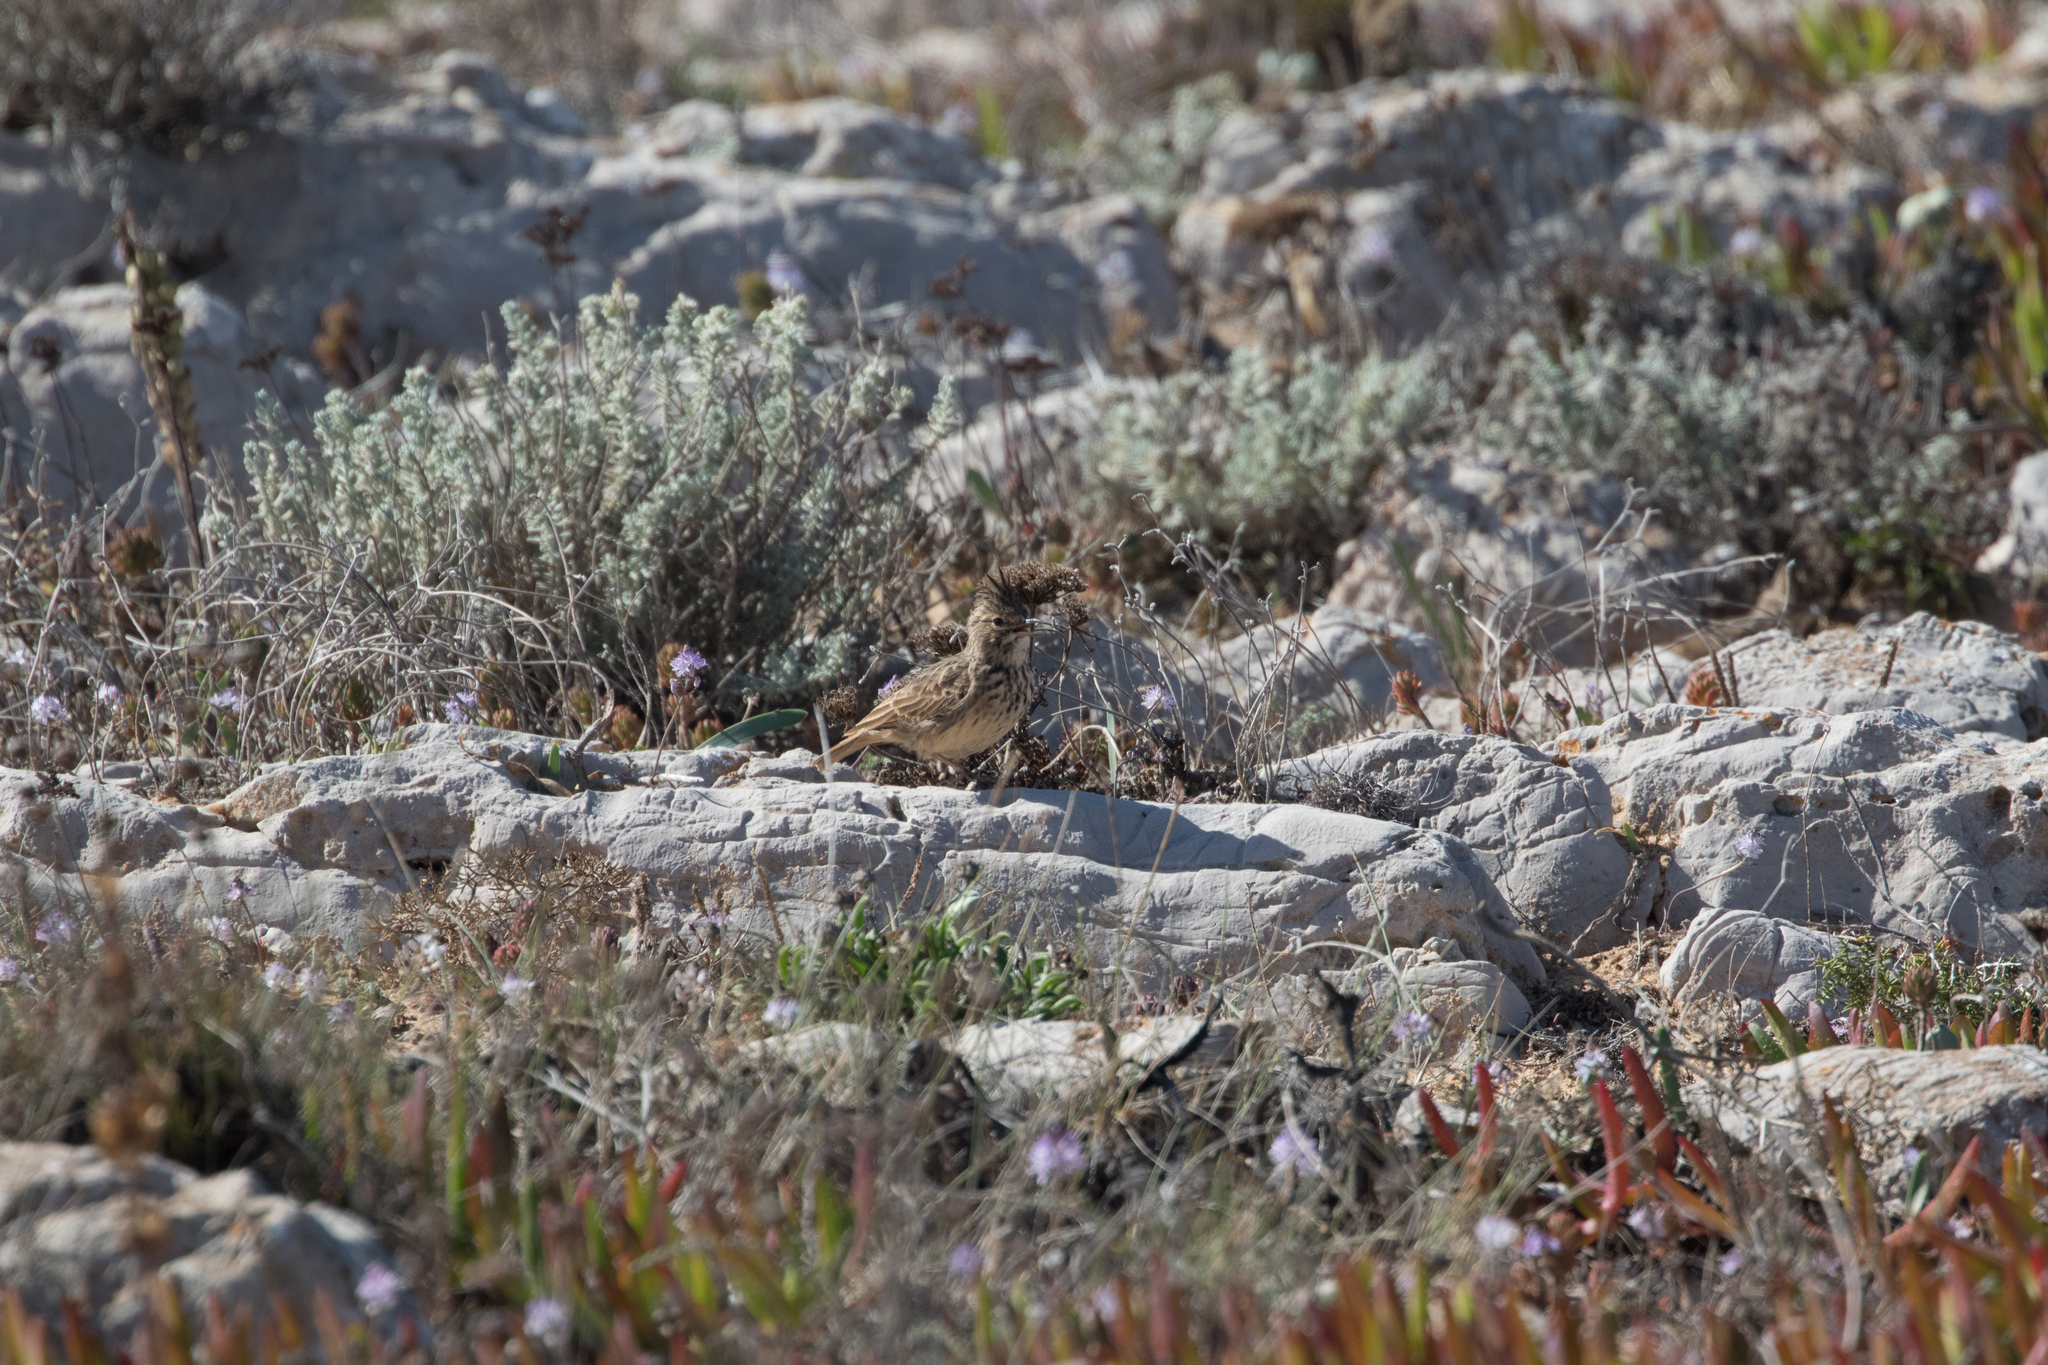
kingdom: Animalia
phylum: Chordata
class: Aves
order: Passeriformes
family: Alaudidae
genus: Galerida
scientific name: Galerida theklae
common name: Thekla lark
